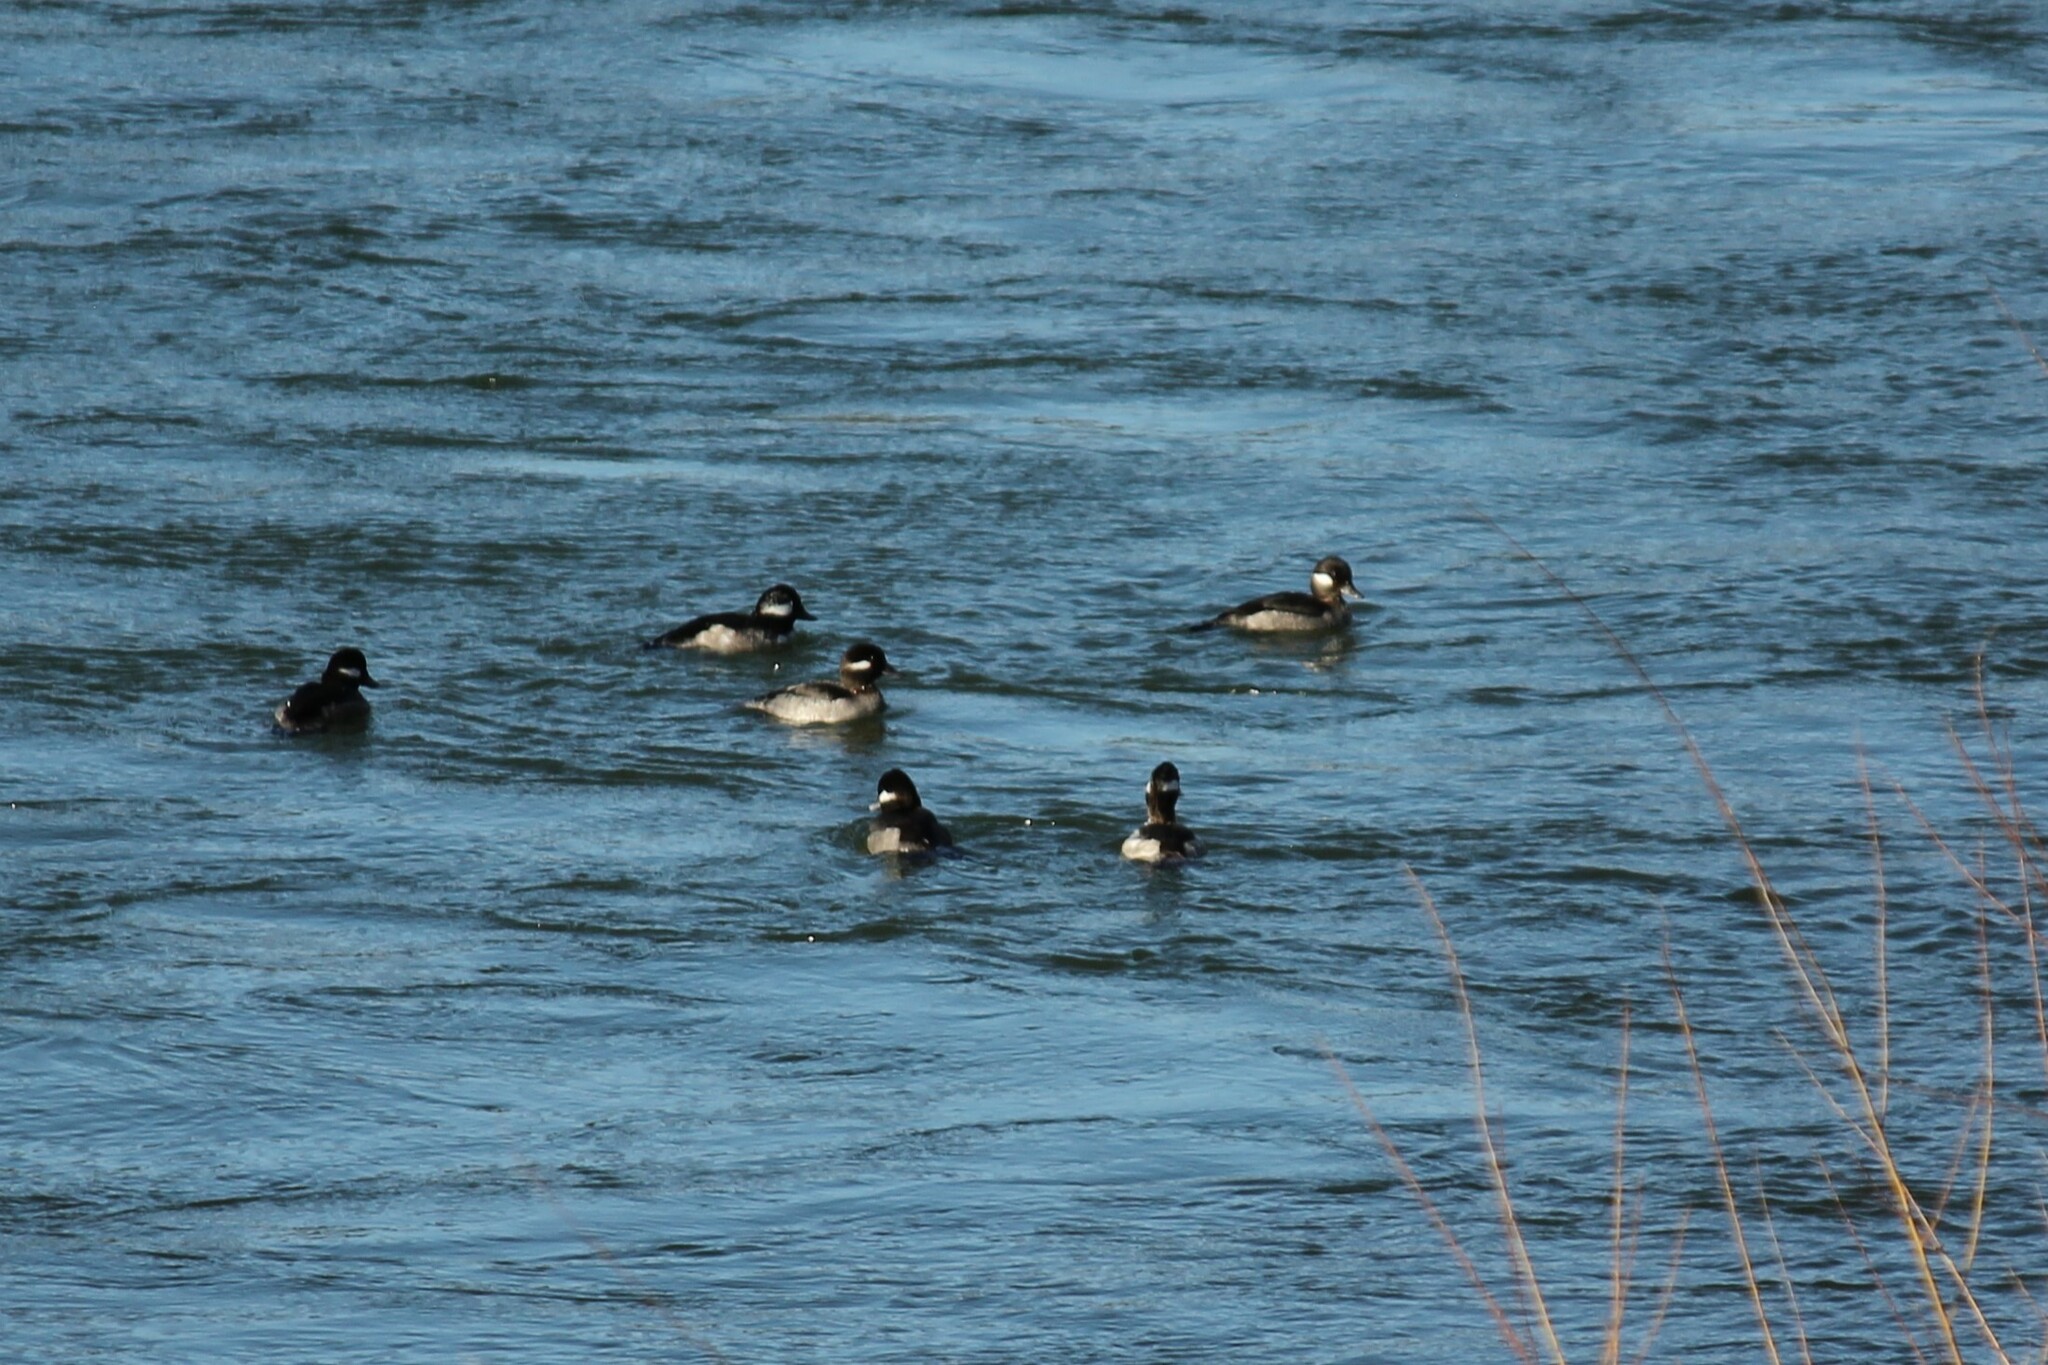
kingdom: Animalia
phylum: Chordata
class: Aves
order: Anseriformes
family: Anatidae
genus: Bucephala
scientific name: Bucephala albeola
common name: Bufflehead
